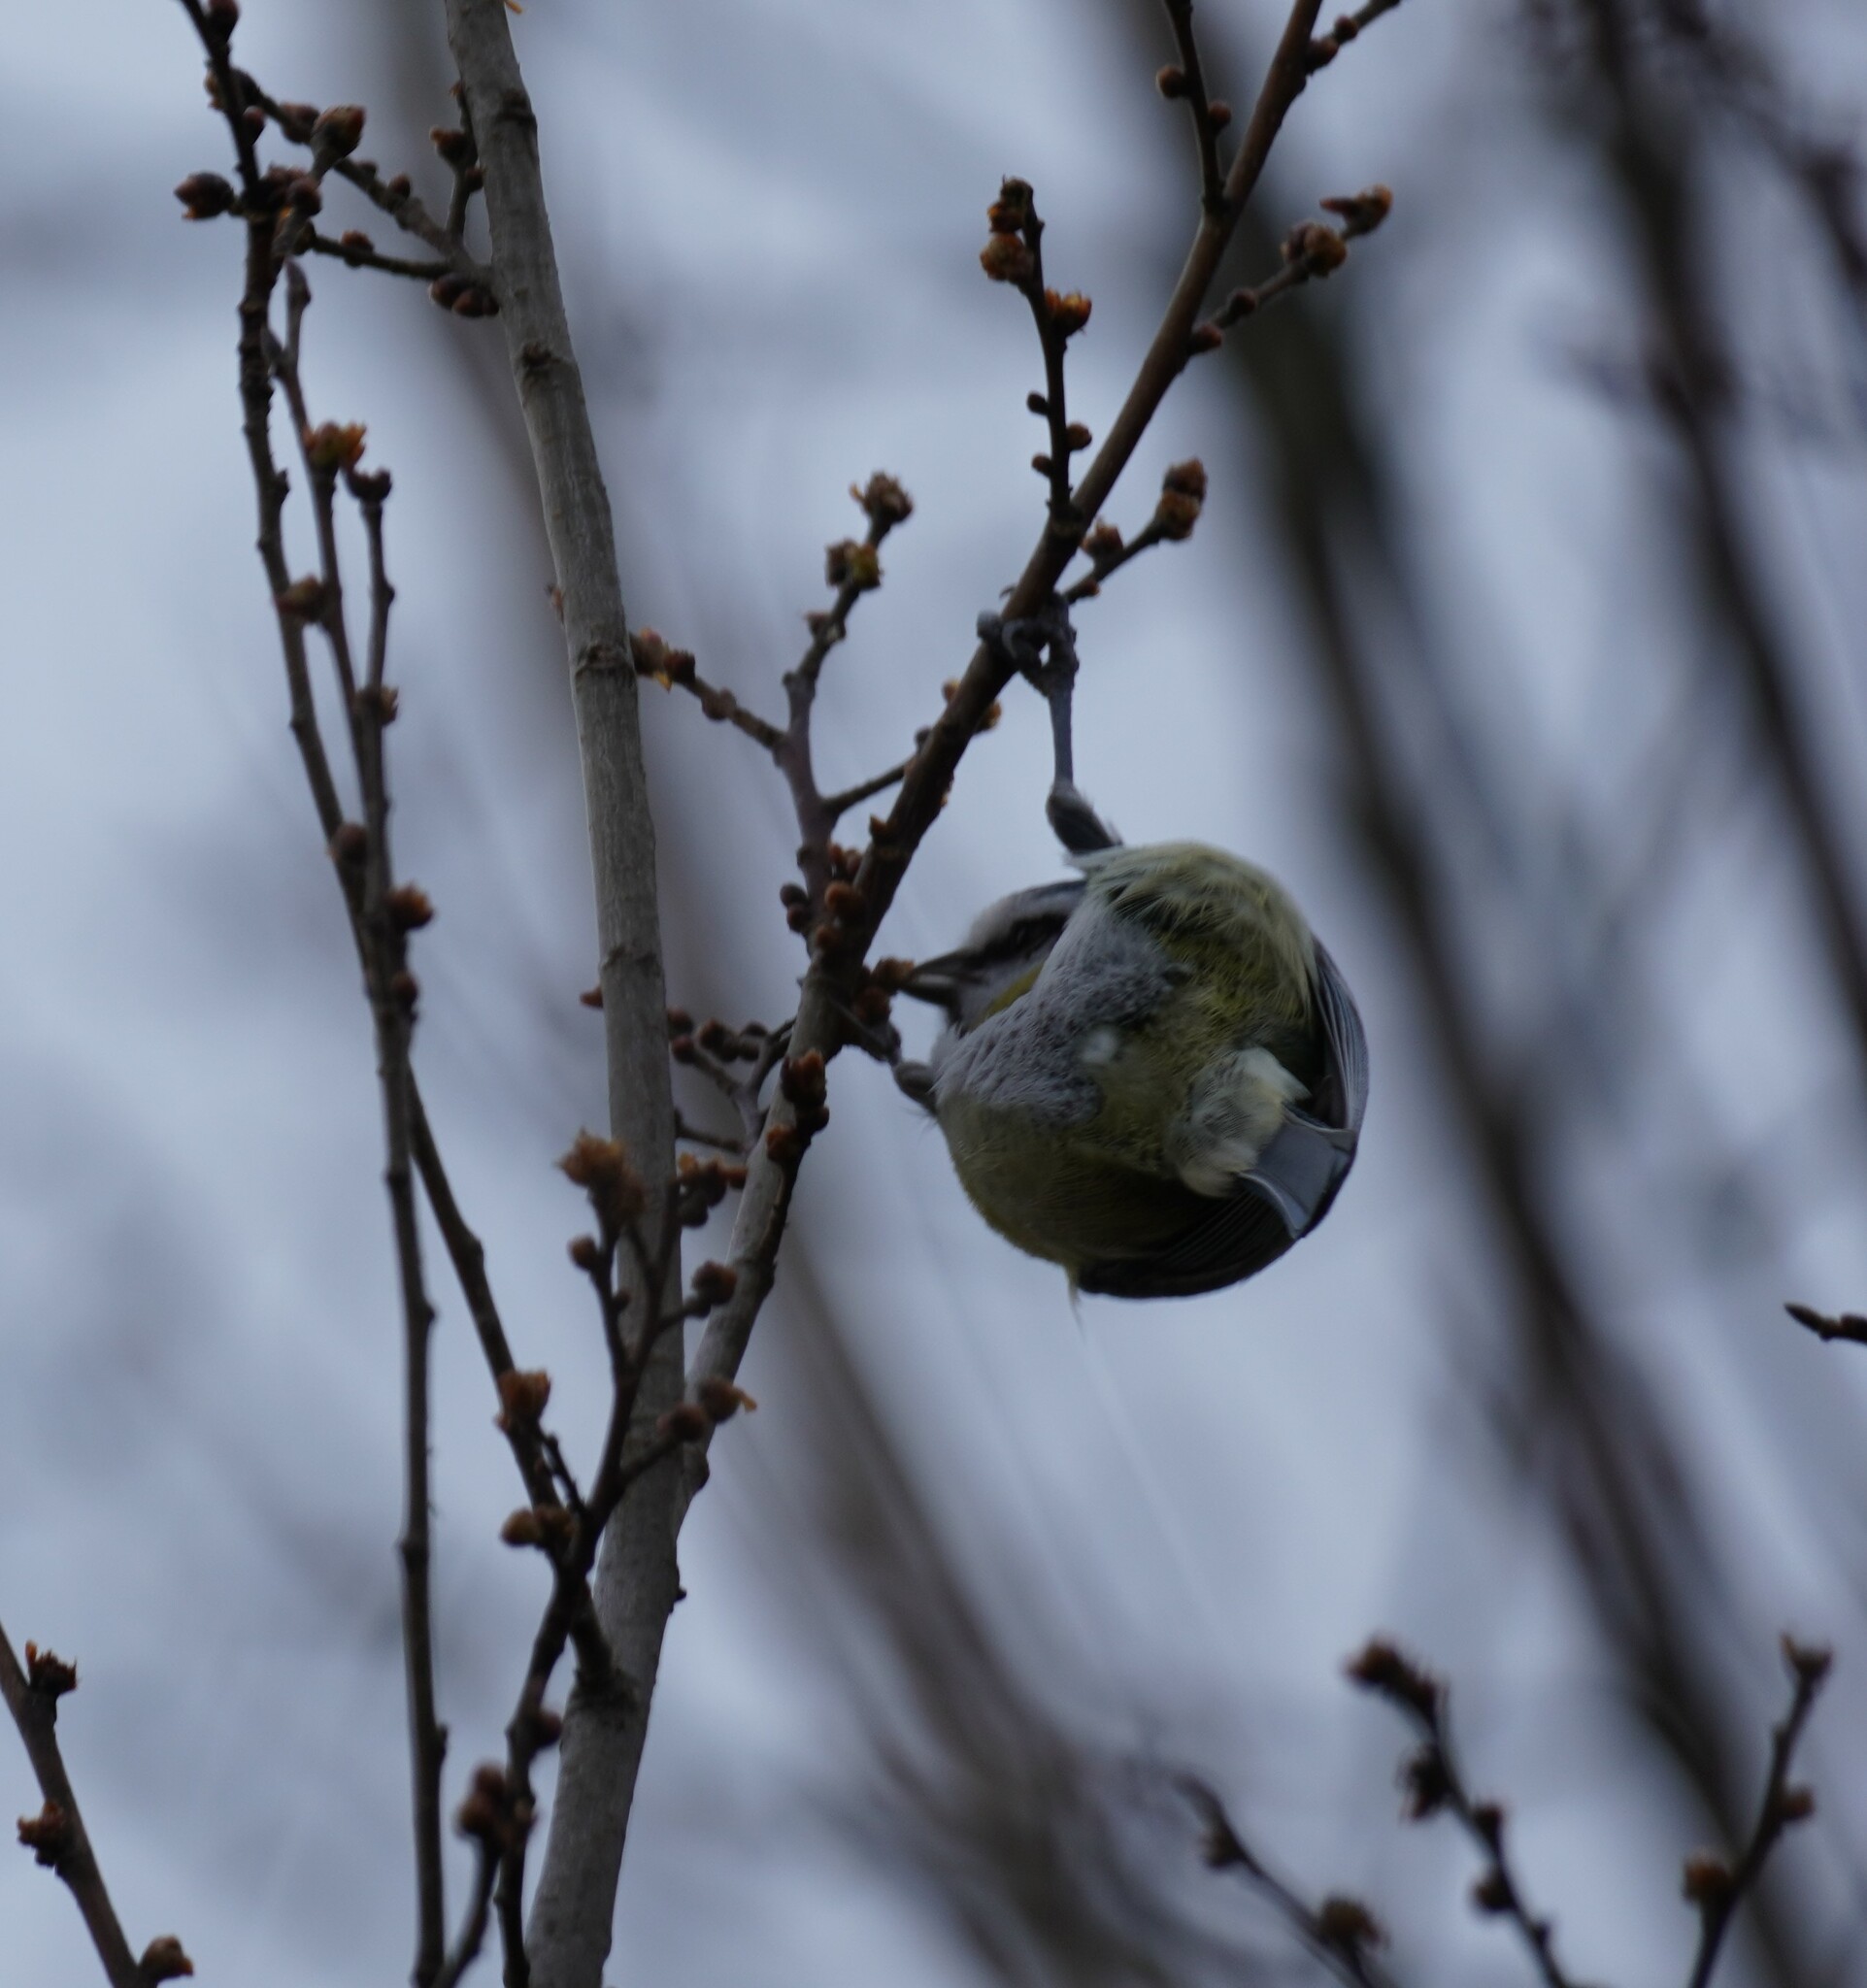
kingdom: Animalia
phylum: Chordata
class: Aves
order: Passeriformes
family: Paridae
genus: Cyanistes
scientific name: Cyanistes caeruleus
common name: Eurasian blue tit
